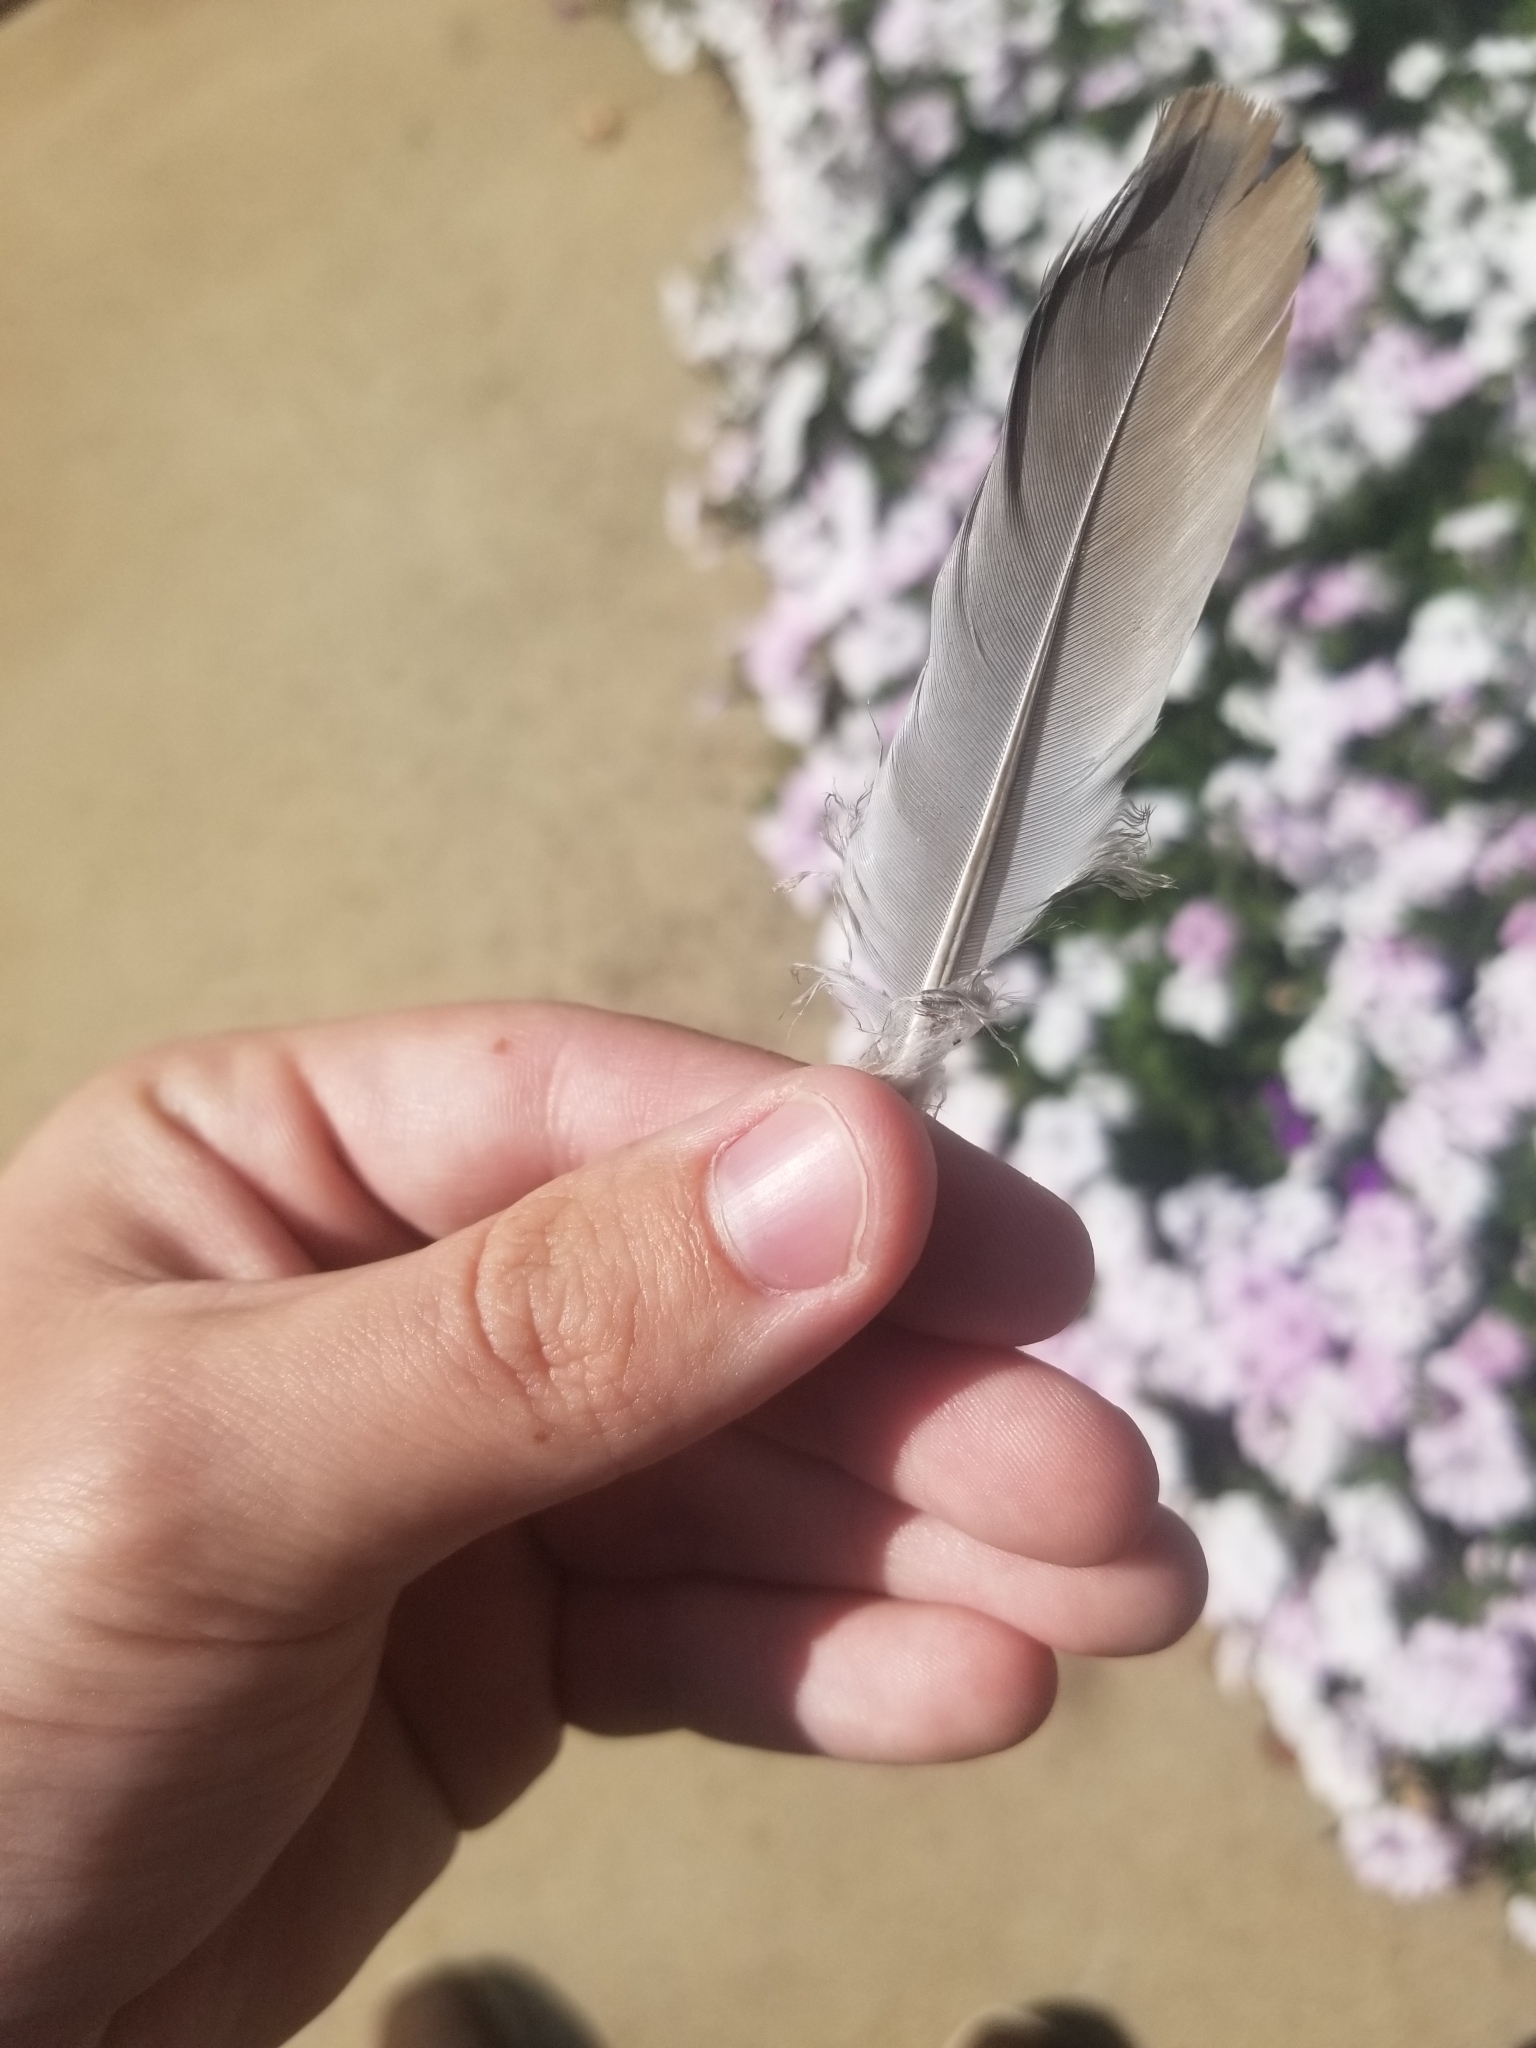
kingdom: Animalia
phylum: Chordata
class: Aves
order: Columbiformes
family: Columbidae
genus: Zenaida
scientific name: Zenaida macroura
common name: Mourning dove
